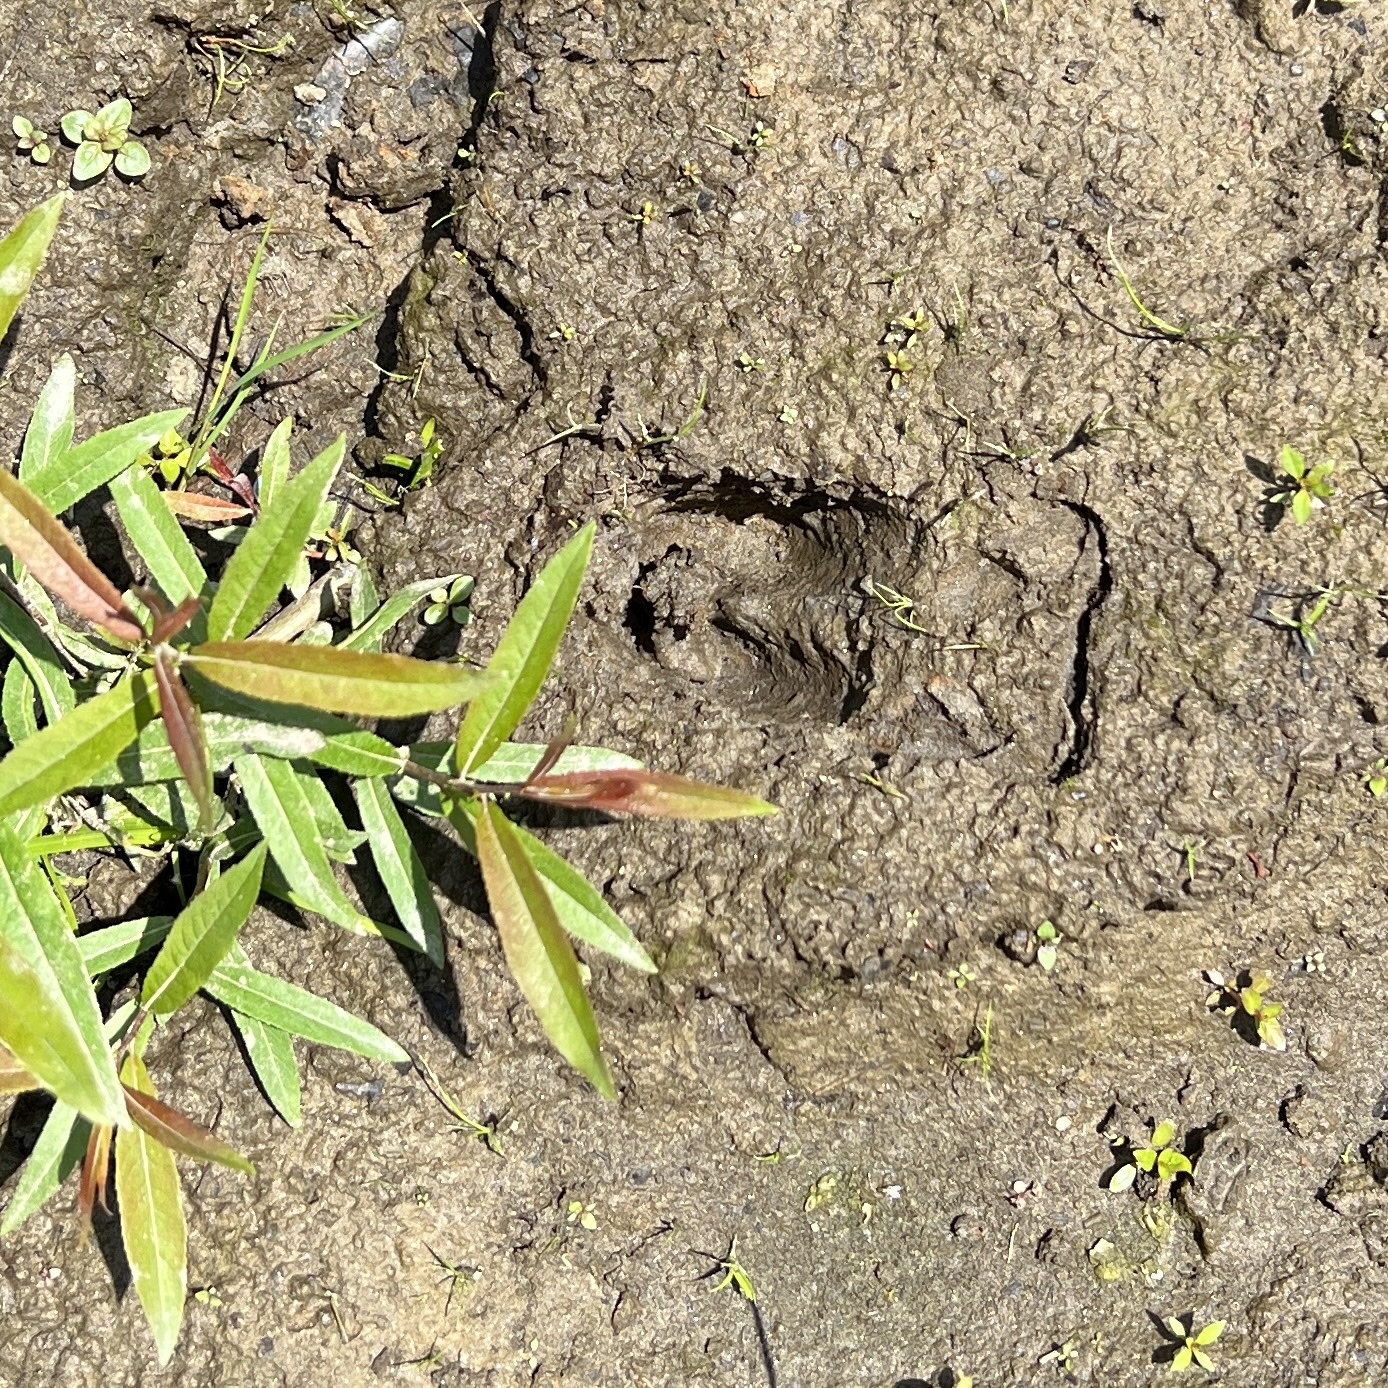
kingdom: Animalia
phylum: Chordata
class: Mammalia
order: Artiodactyla
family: Cervidae
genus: Odocoileus
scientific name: Odocoileus virginianus
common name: White-tailed deer
